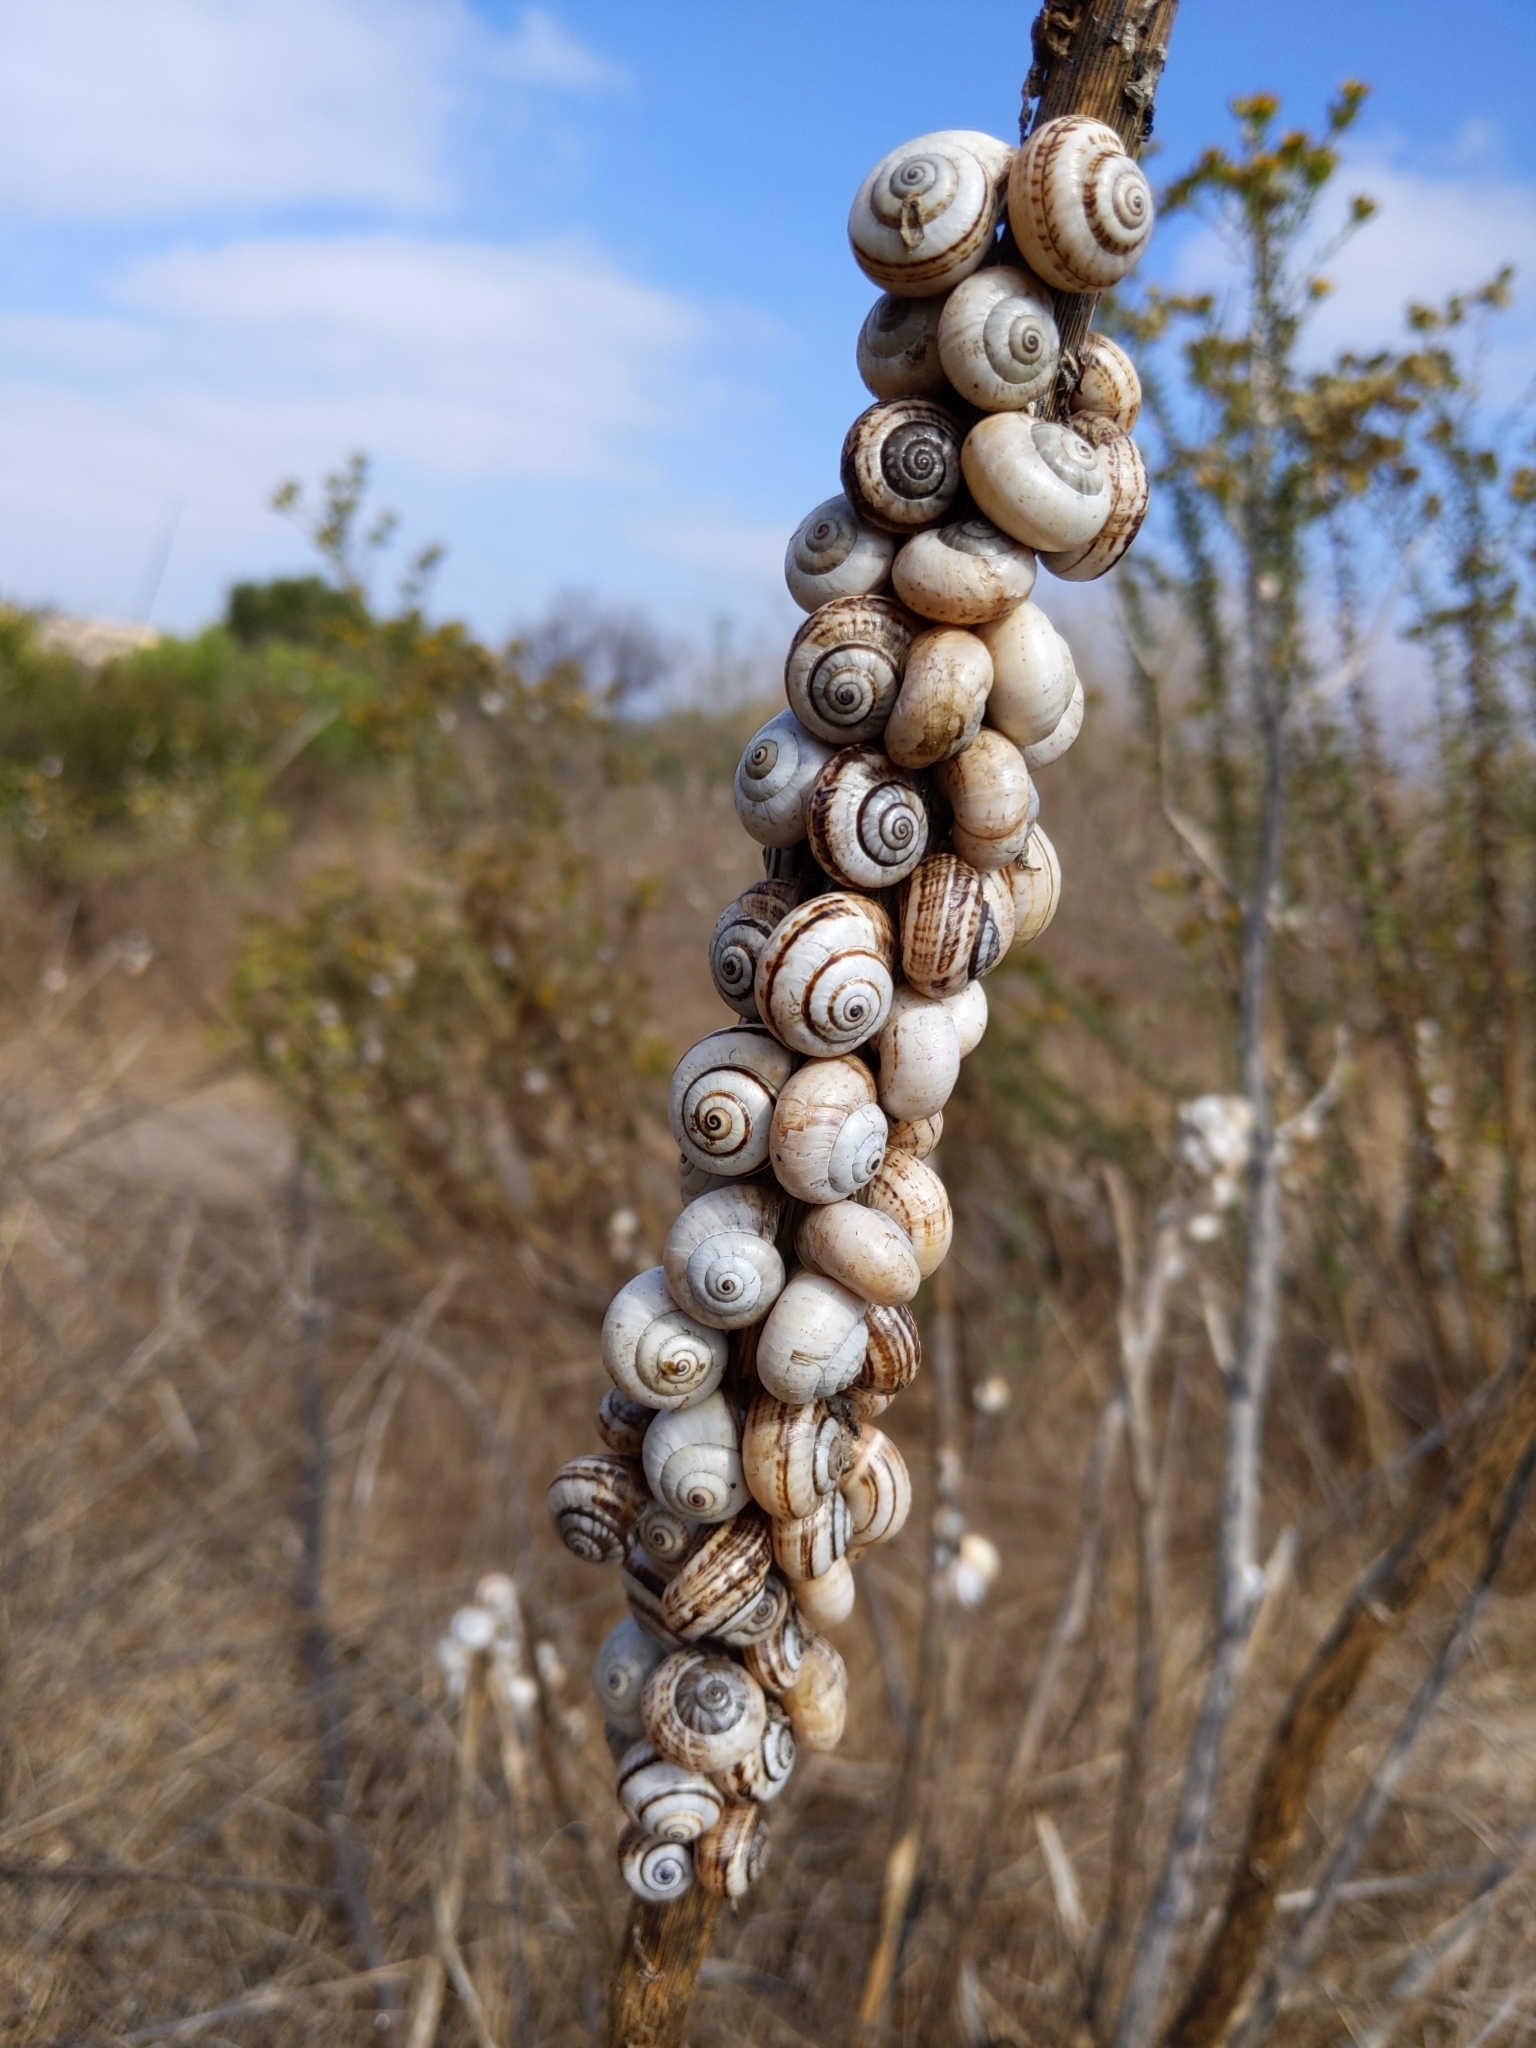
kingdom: Animalia
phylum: Mollusca
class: Gastropoda
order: Stylommatophora
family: Helicidae
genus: Theba
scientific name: Theba pisana
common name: White snail
